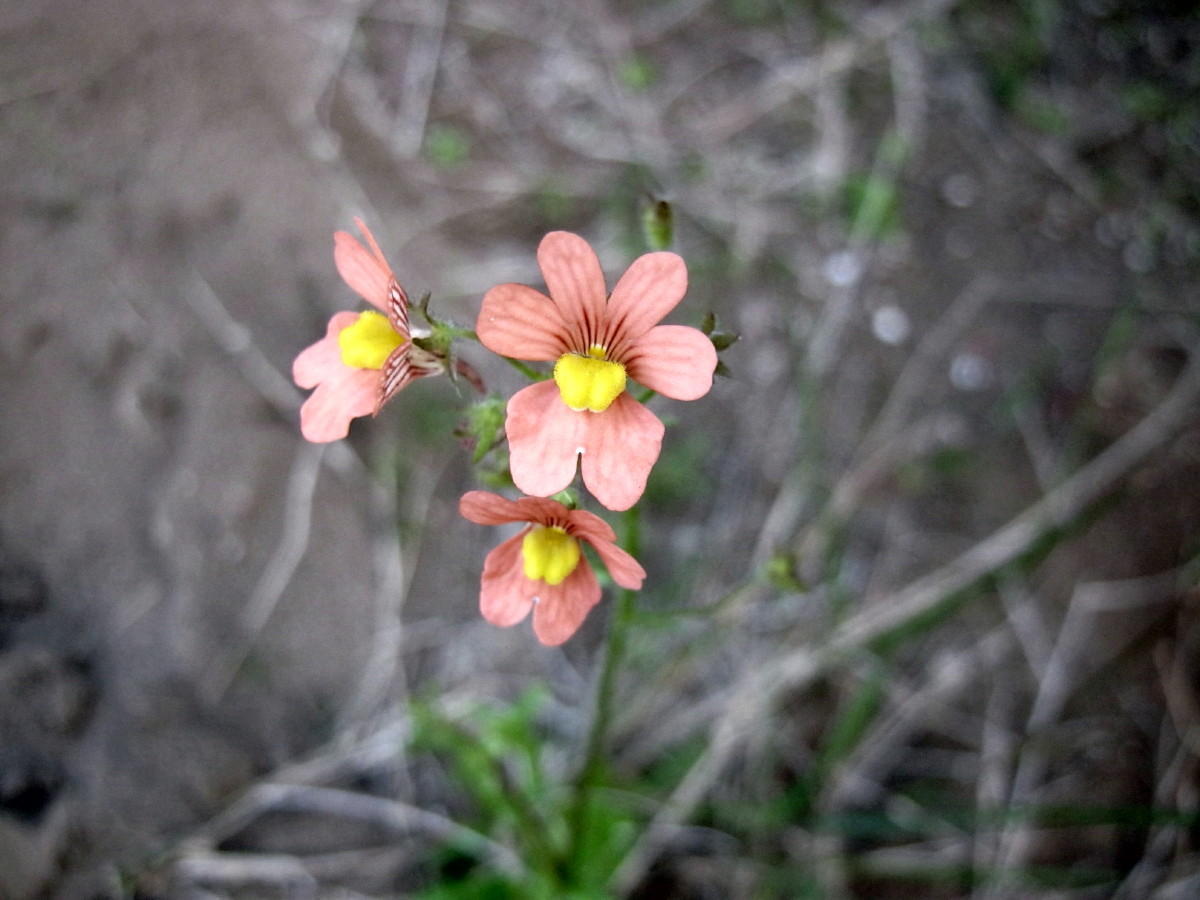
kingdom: Plantae
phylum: Tracheophyta
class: Magnoliopsida
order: Lamiales
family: Scrophulariaceae
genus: Nemesia
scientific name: Nemesia affinis
